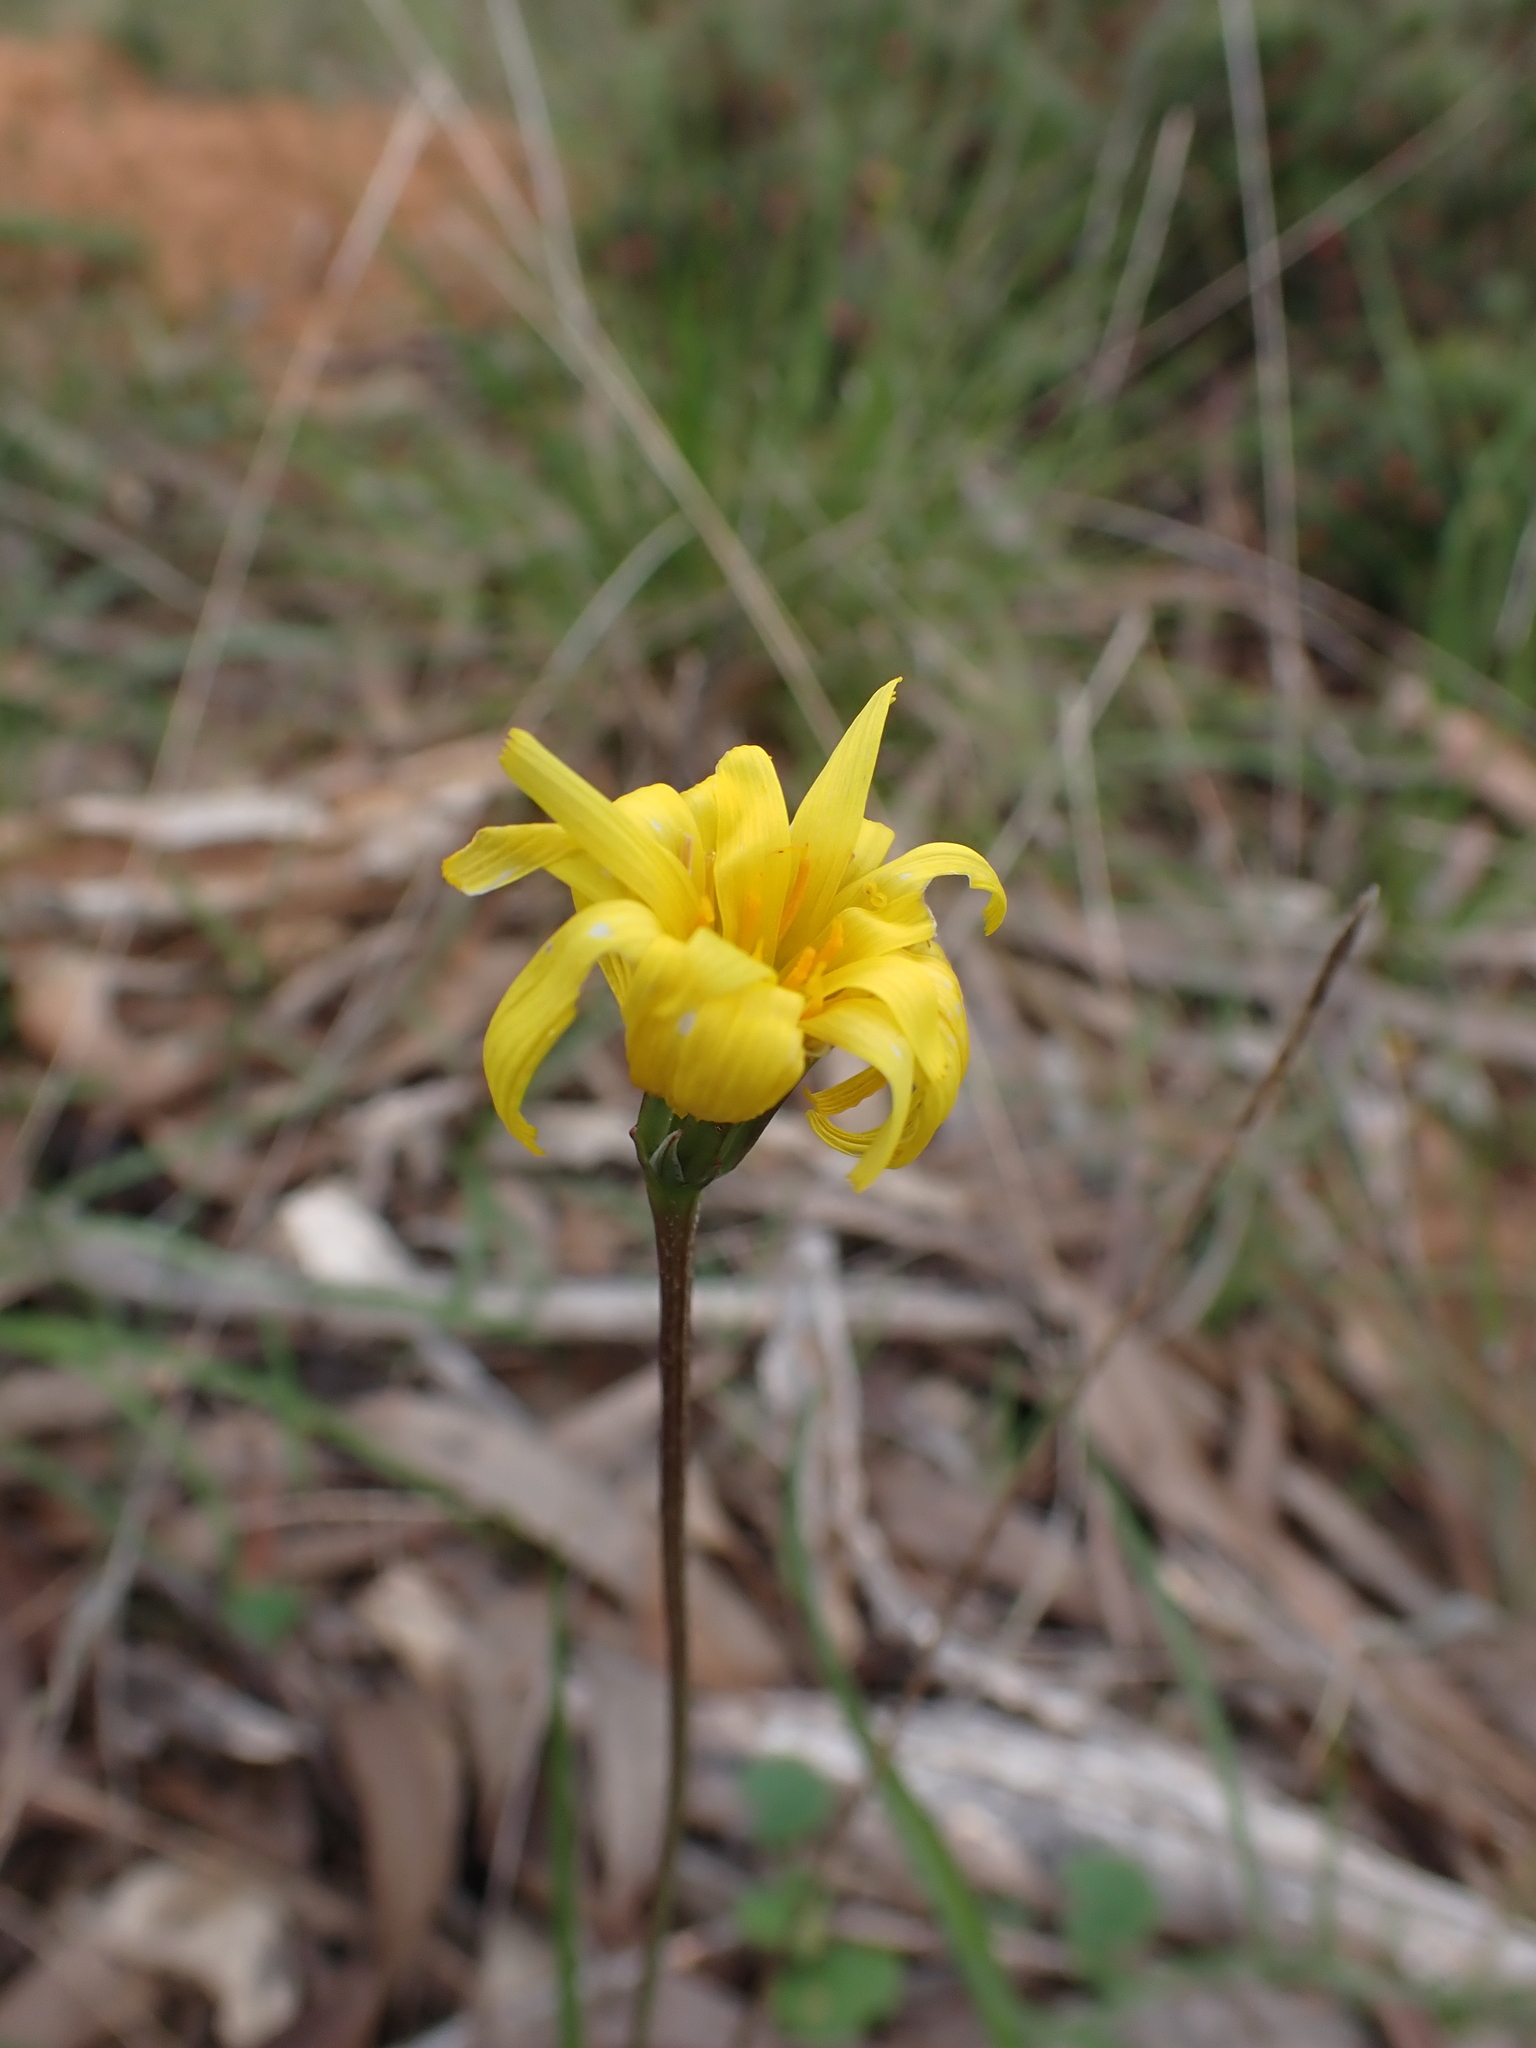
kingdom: Plantae
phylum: Tracheophyta
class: Magnoliopsida
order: Asterales
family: Asteraceae
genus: Microseris
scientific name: Microseris lanceolata
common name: Yam daisy
